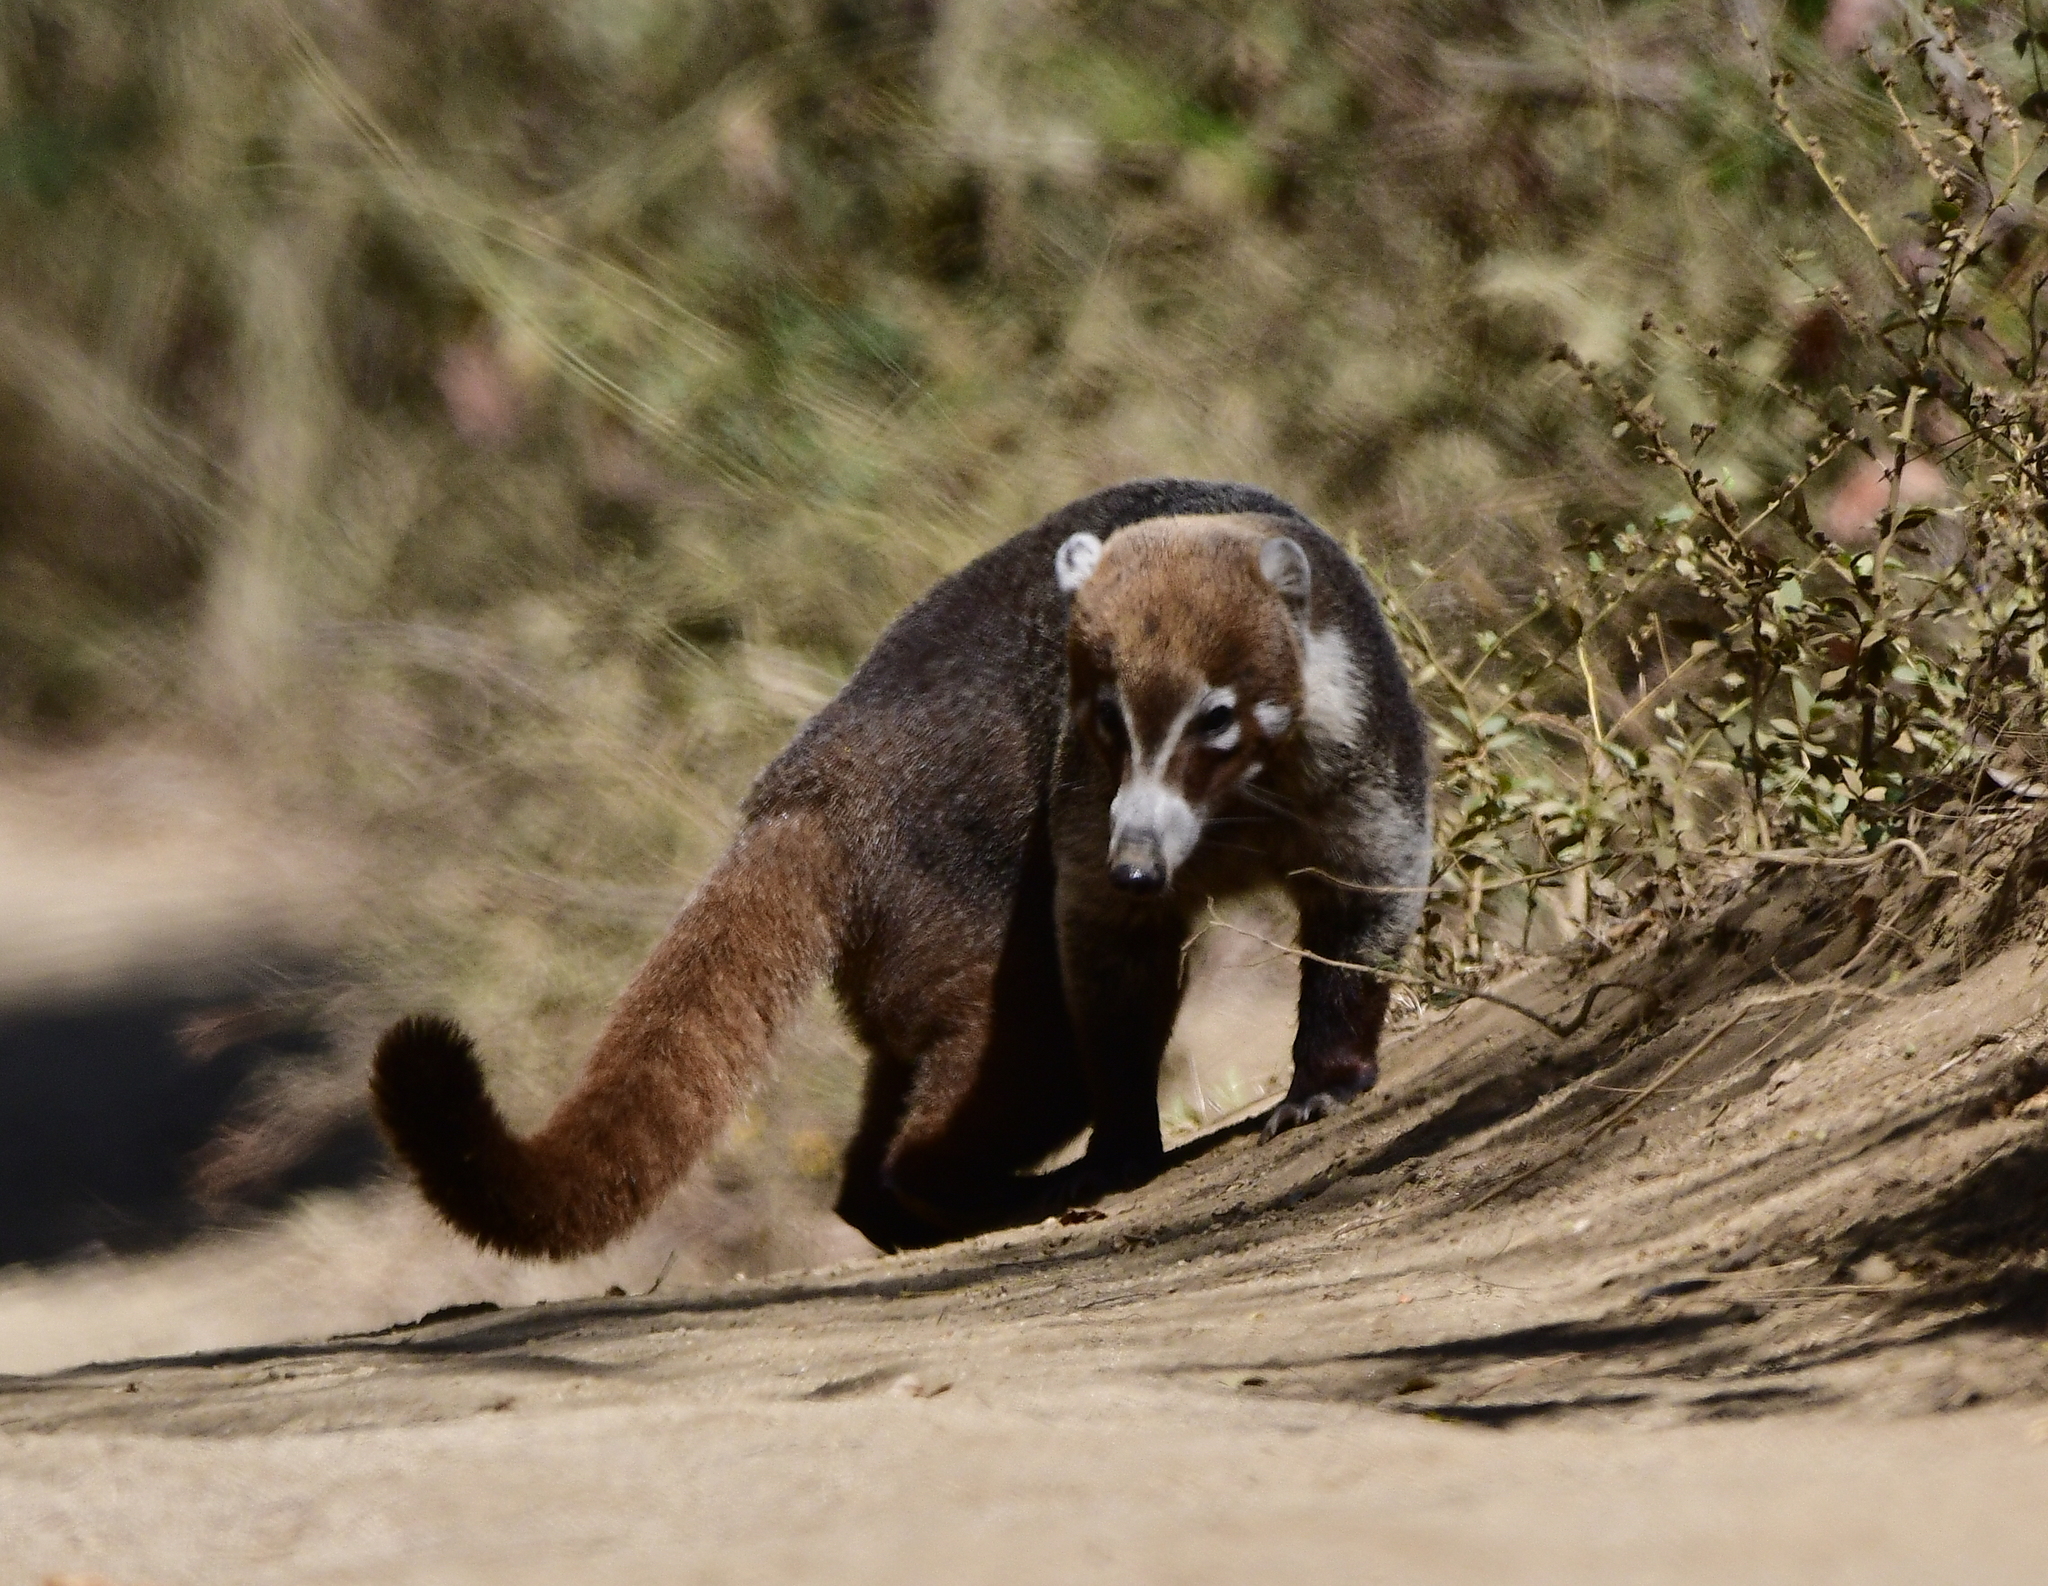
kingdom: Animalia
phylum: Chordata
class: Mammalia
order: Carnivora
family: Procyonidae
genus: Nasua
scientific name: Nasua narica
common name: White-nosed coati
